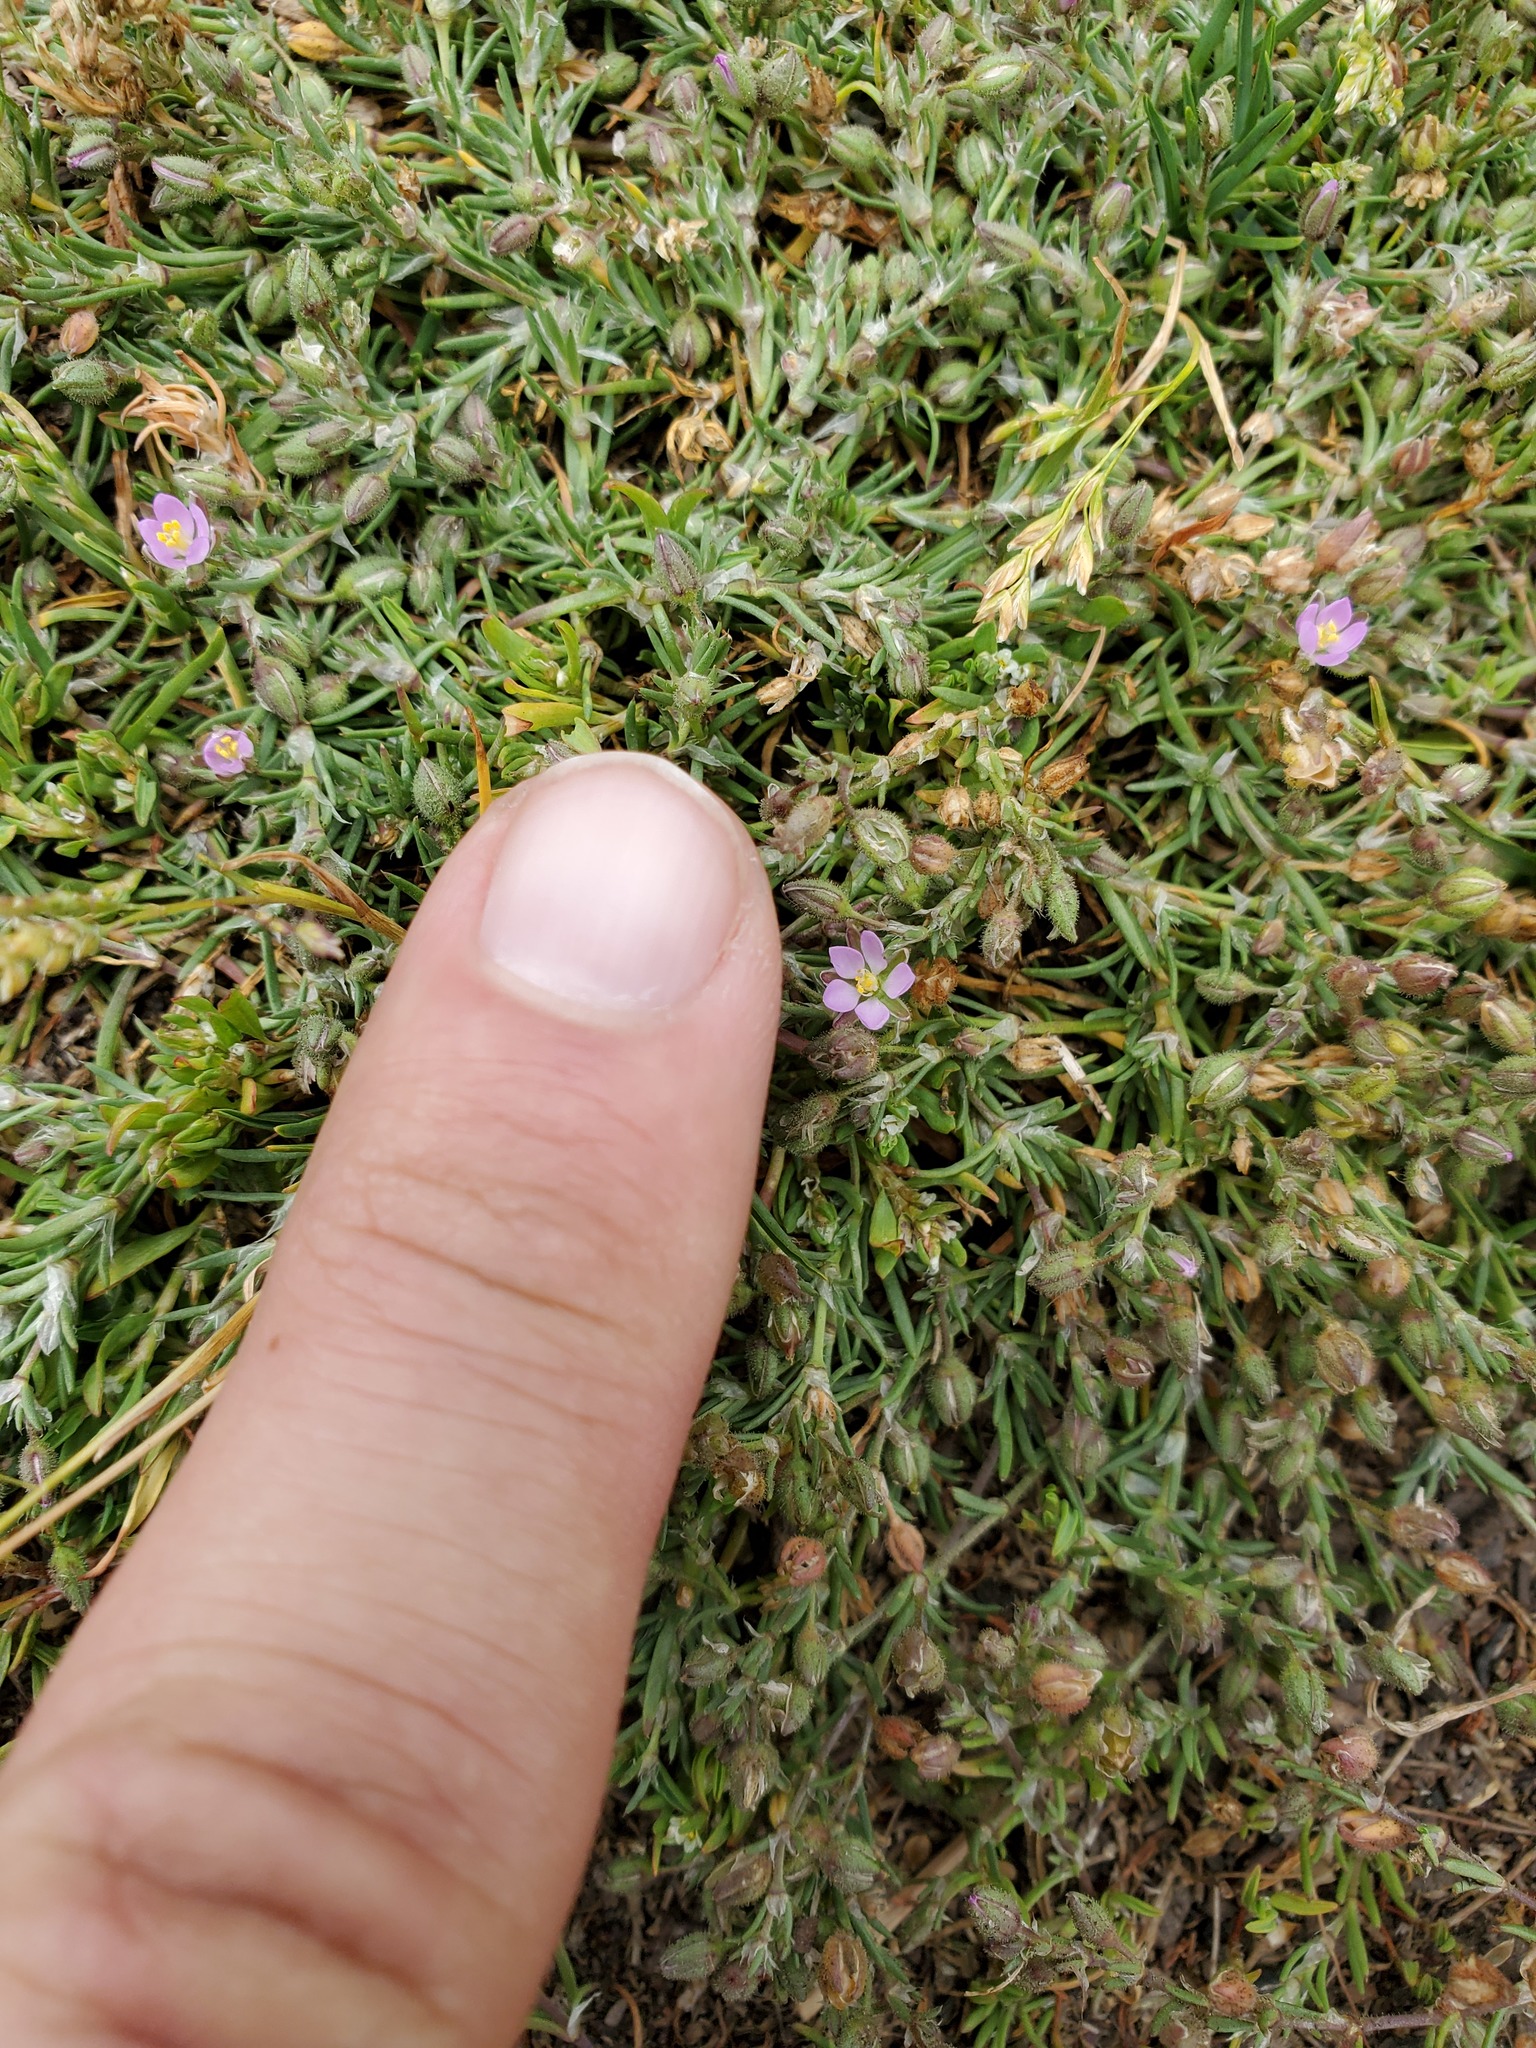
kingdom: Plantae
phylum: Tracheophyta
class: Magnoliopsida
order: Caryophyllales
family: Caryophyllaceae
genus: Spergularia
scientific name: Spergularia rubra
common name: Red sand-spurrey
